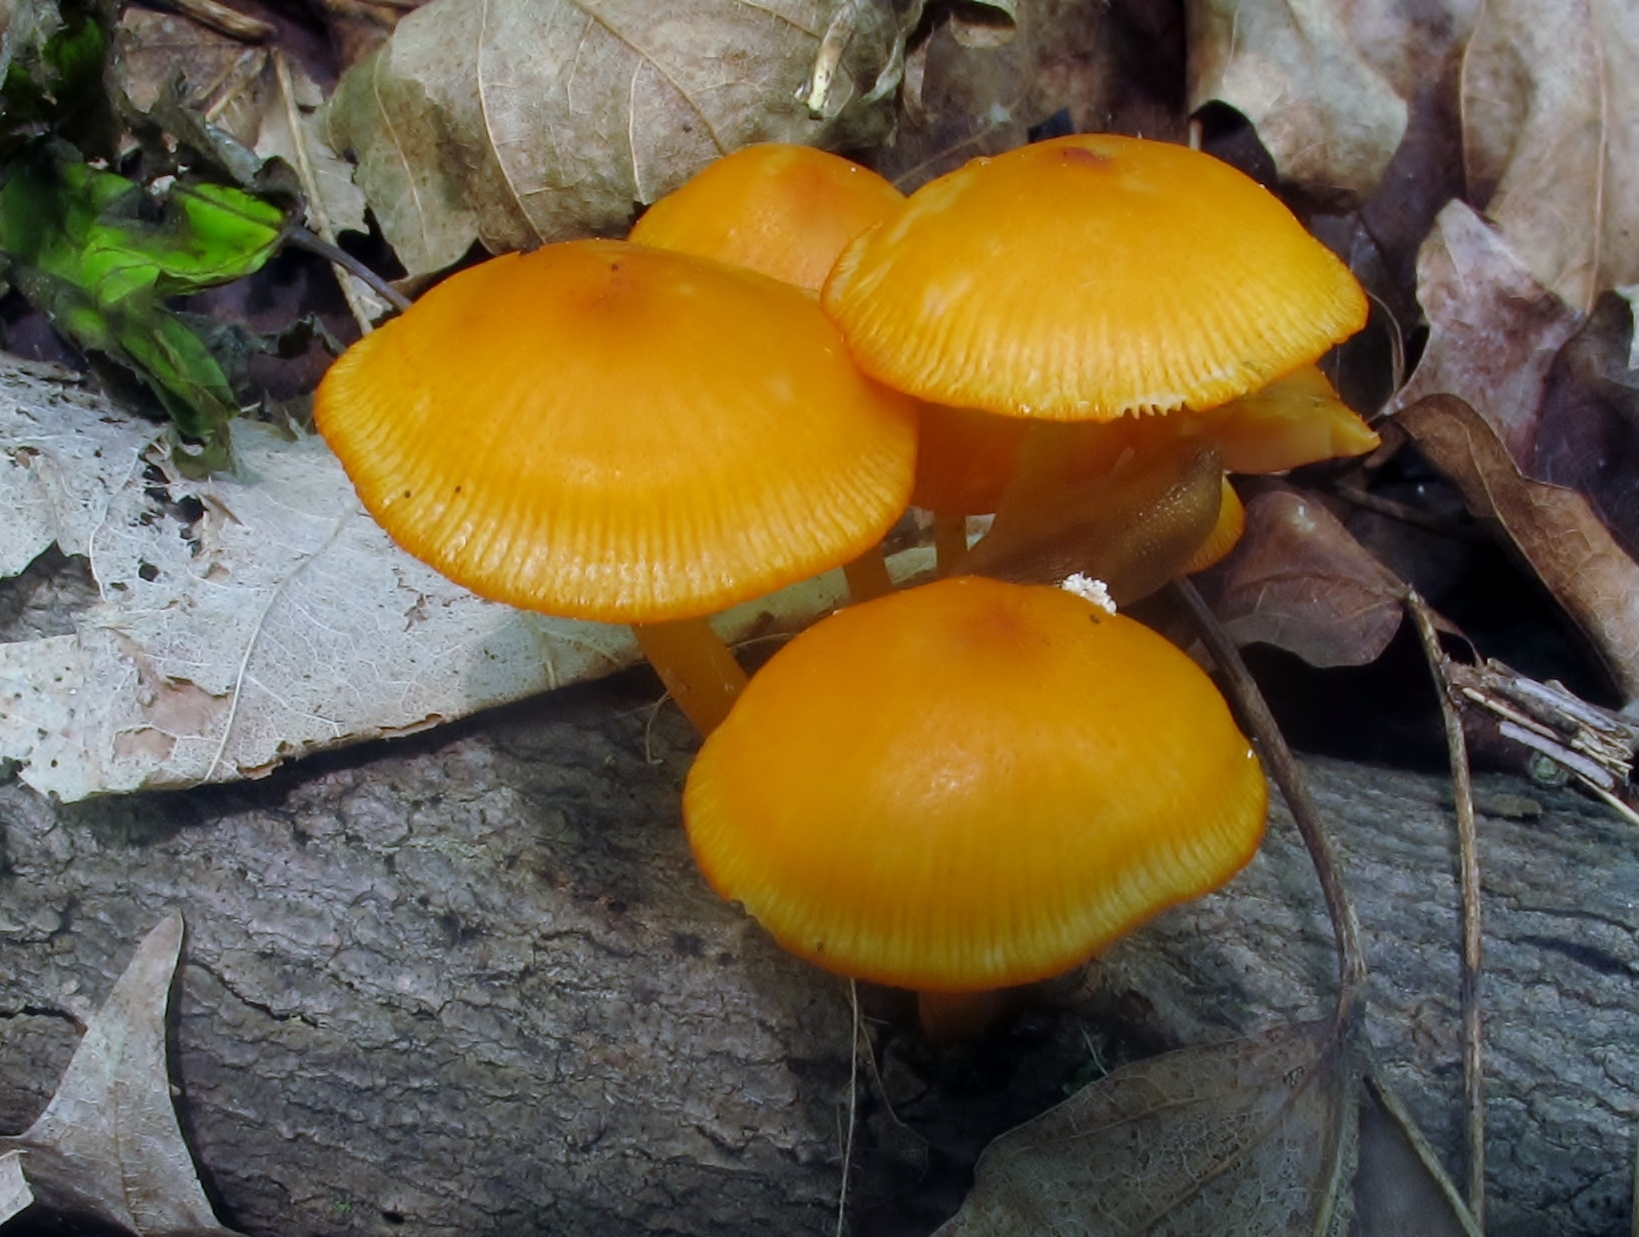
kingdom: Fungi
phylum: Basidiomycota
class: Agaricomycetes
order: Agaricales
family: Mycenaceae
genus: Mycena
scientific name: Mycena leaiana
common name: Orange mycena
